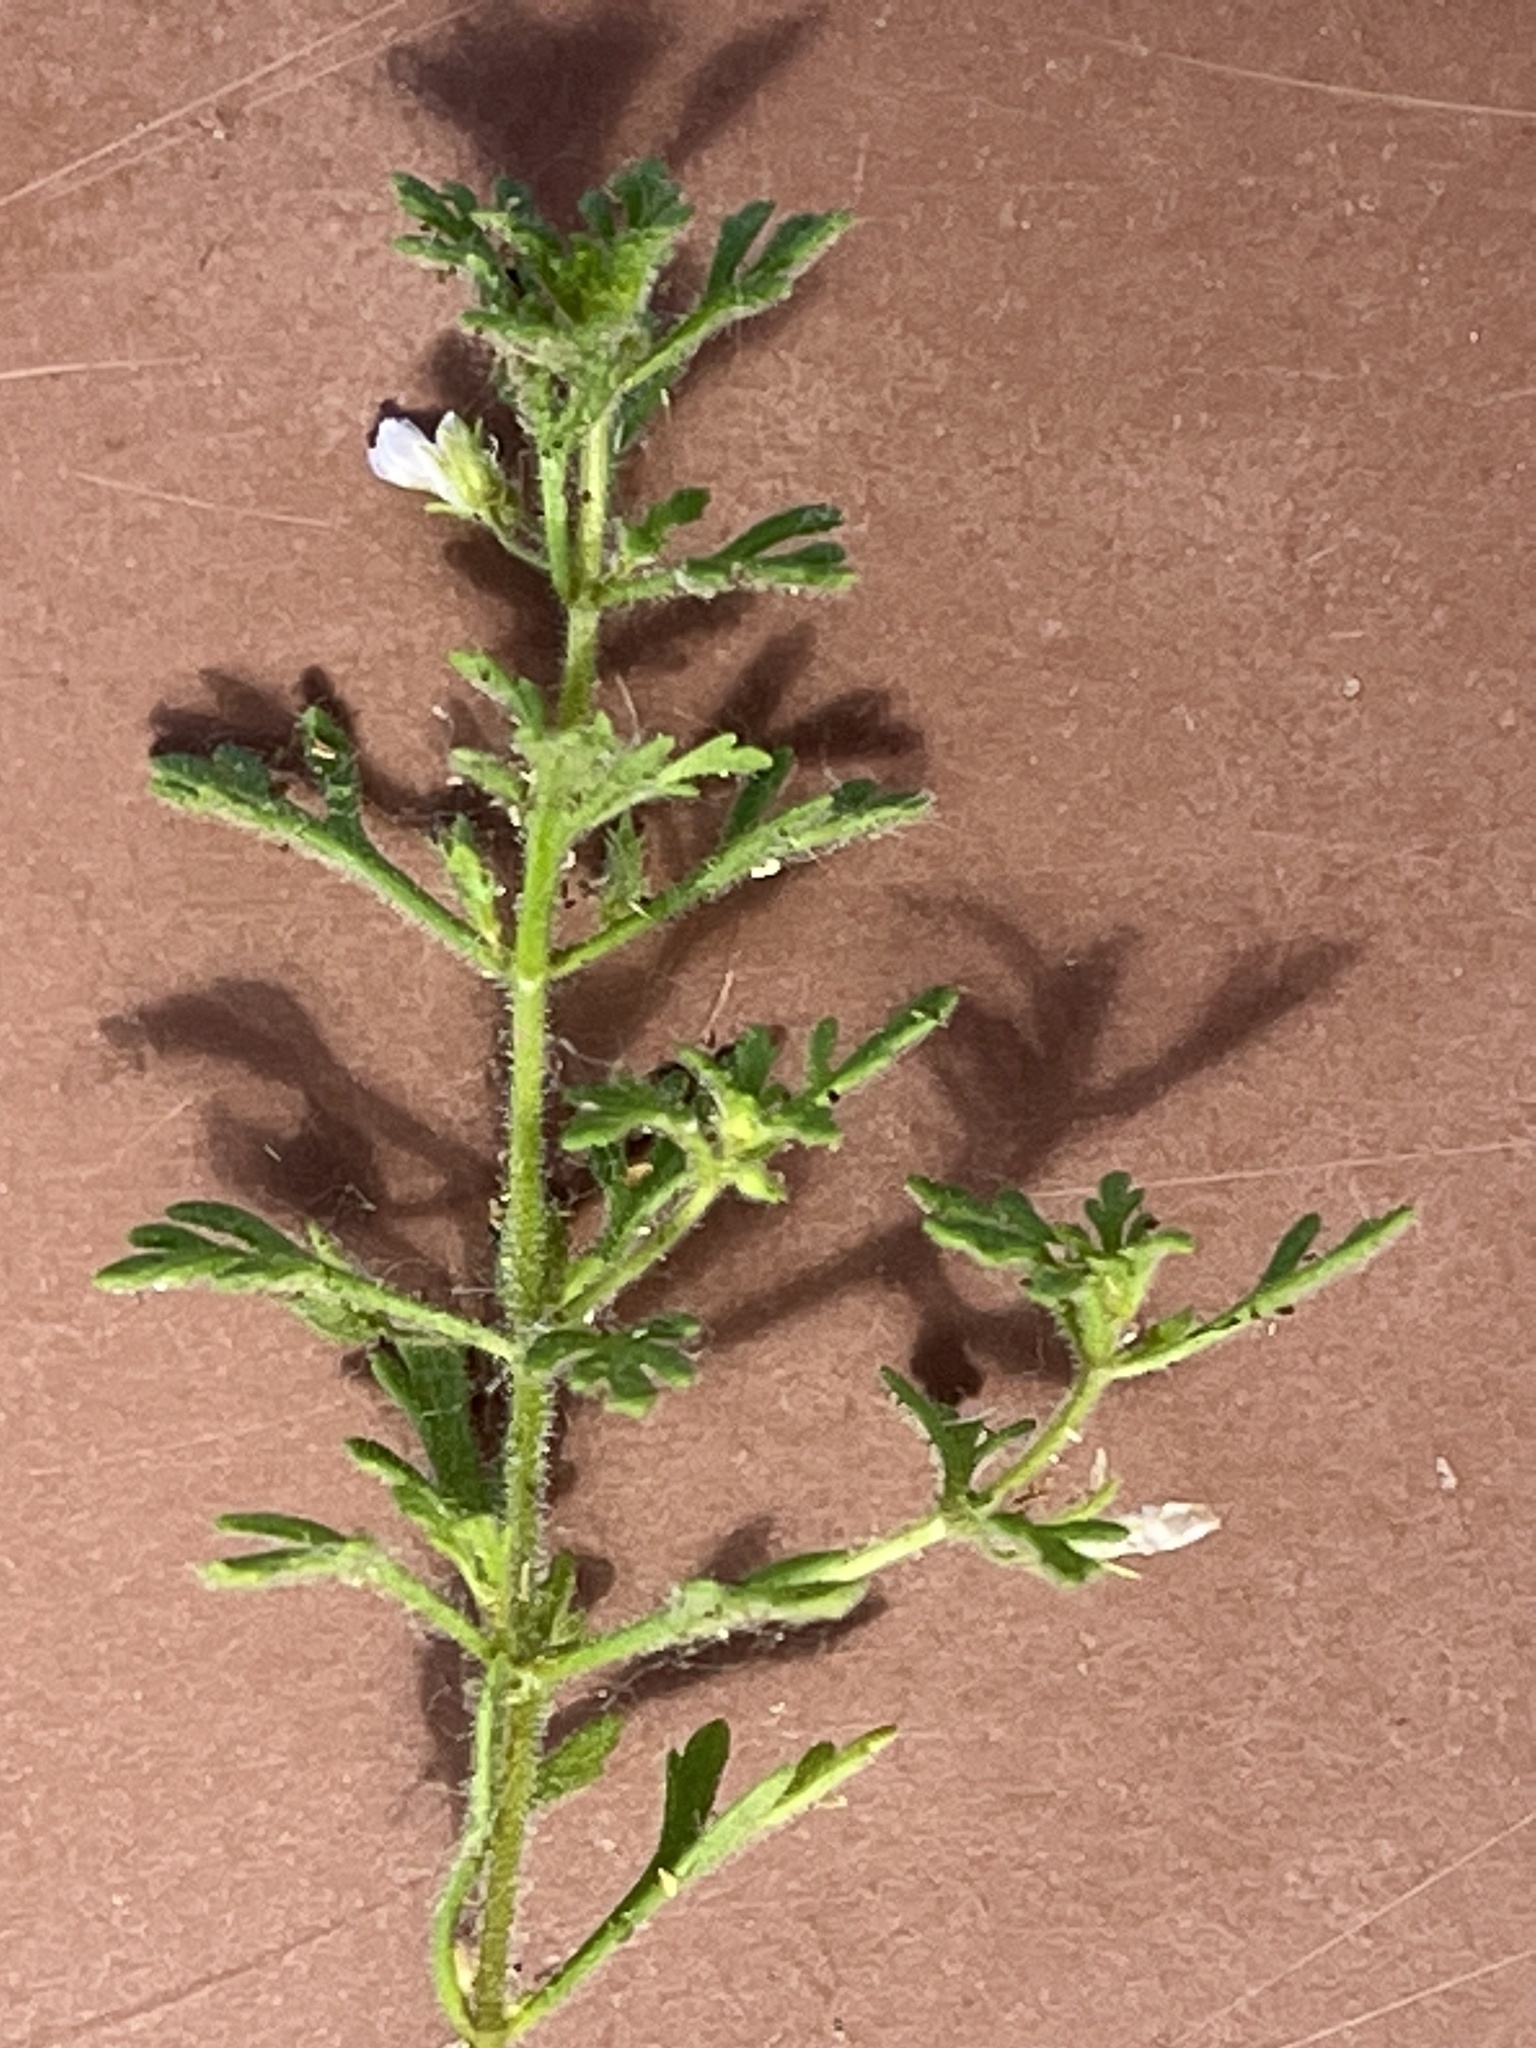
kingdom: Plantae
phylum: Tracheophyta
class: Magnoliopsida
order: Lamiales
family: Plantaginaceae
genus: Leucospora
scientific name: Leucospora multifida
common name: Narrow-leaf paleseed
